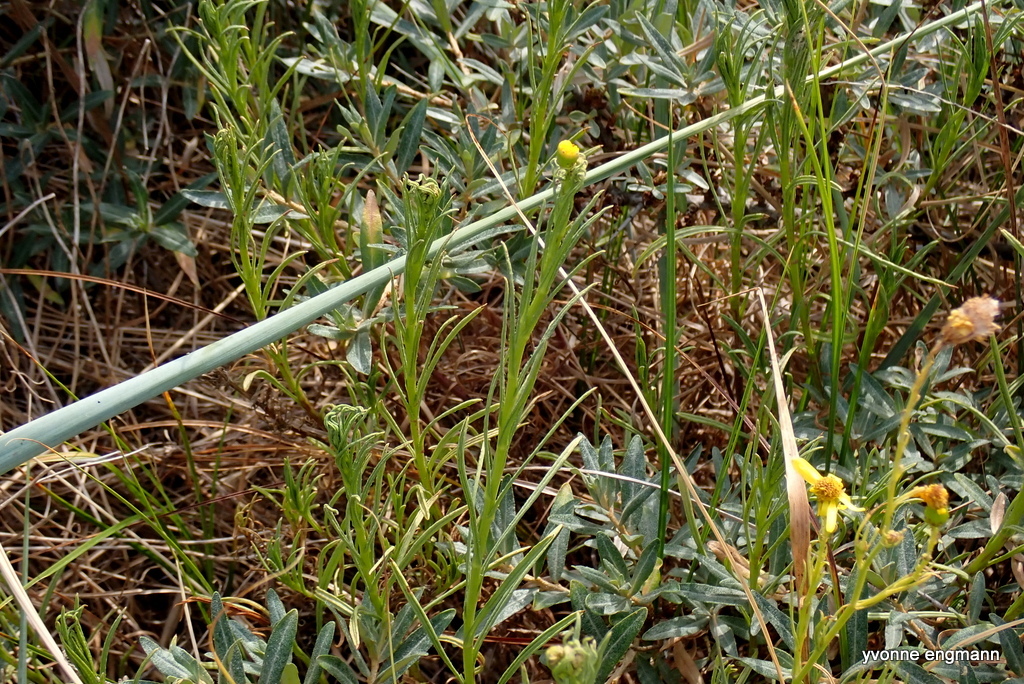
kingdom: Plantae
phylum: Tracheophyta
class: Magnoliopsida
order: Asterales
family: Asteraceae
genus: Senecio
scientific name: Senecio inaequidens
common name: Narrow-leaved ragwort
